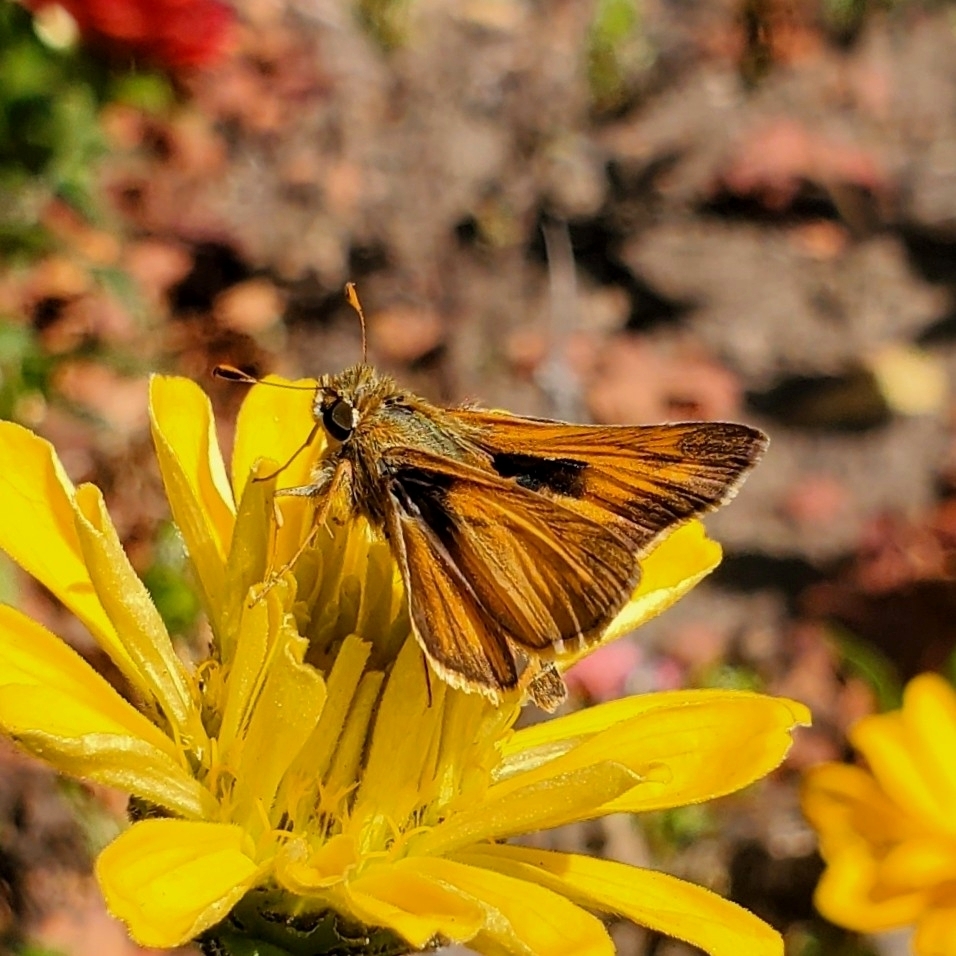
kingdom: Animalia
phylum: Arthropoda
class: Insecta
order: Lepidoptera
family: Hesperiidae
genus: Atalopedes
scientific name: Atalopedes
